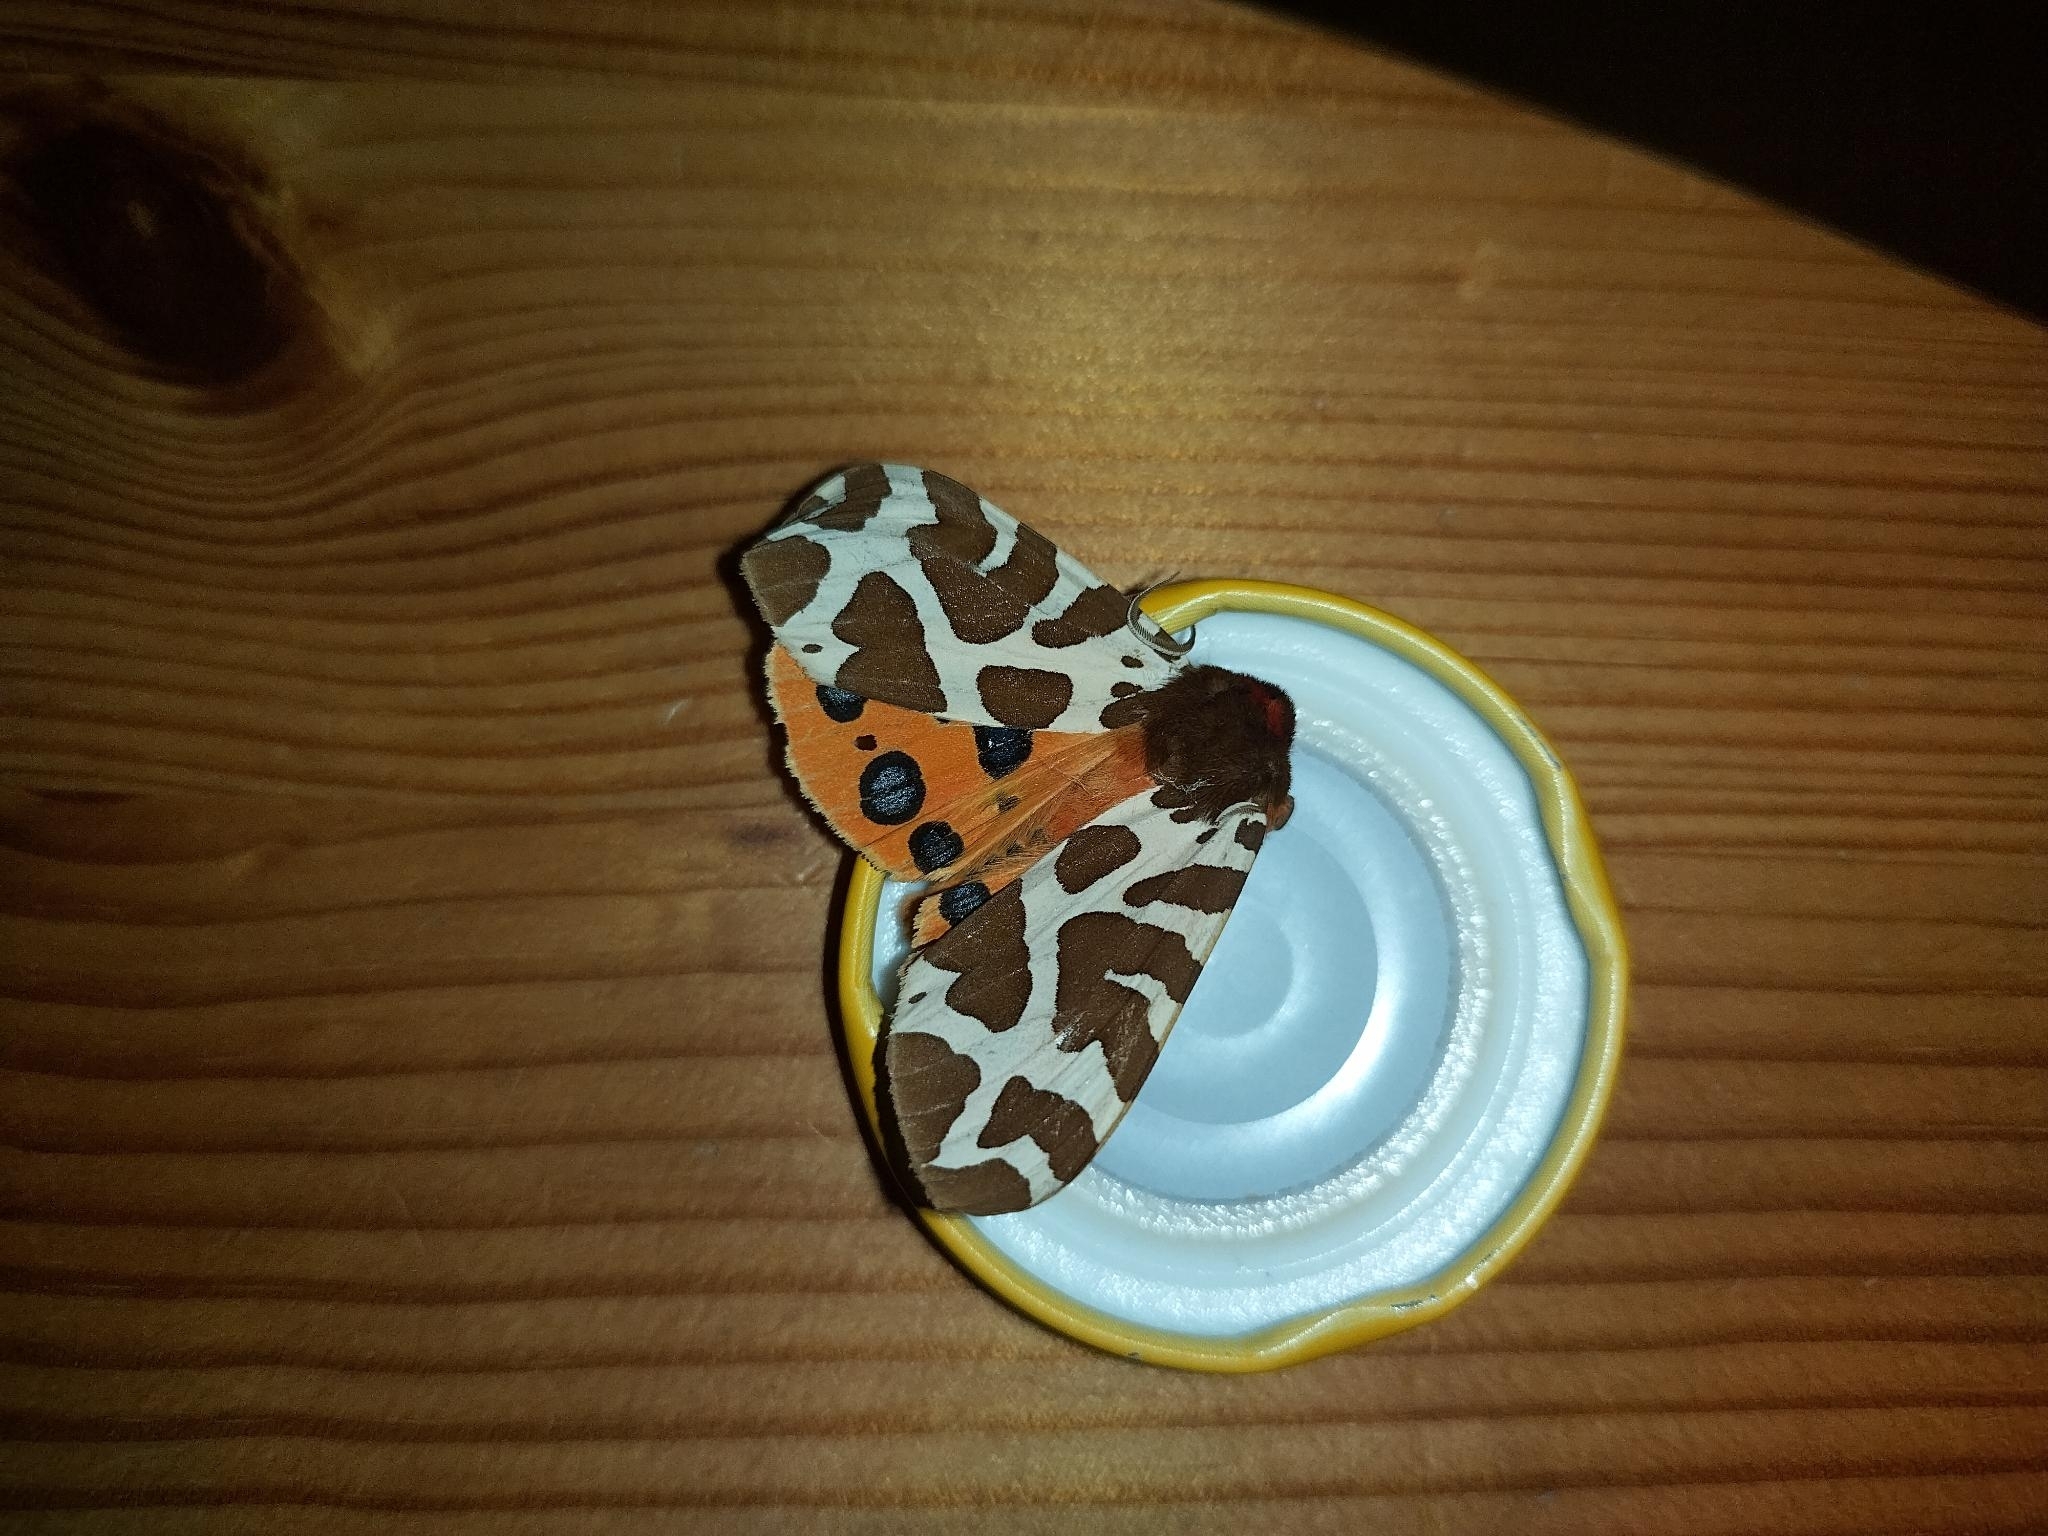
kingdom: Animalia
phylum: Arthropoda
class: Insecta
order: Lepidoptera
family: Erebidae
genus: Arctia
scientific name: Arctia caja
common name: Garden tiger
